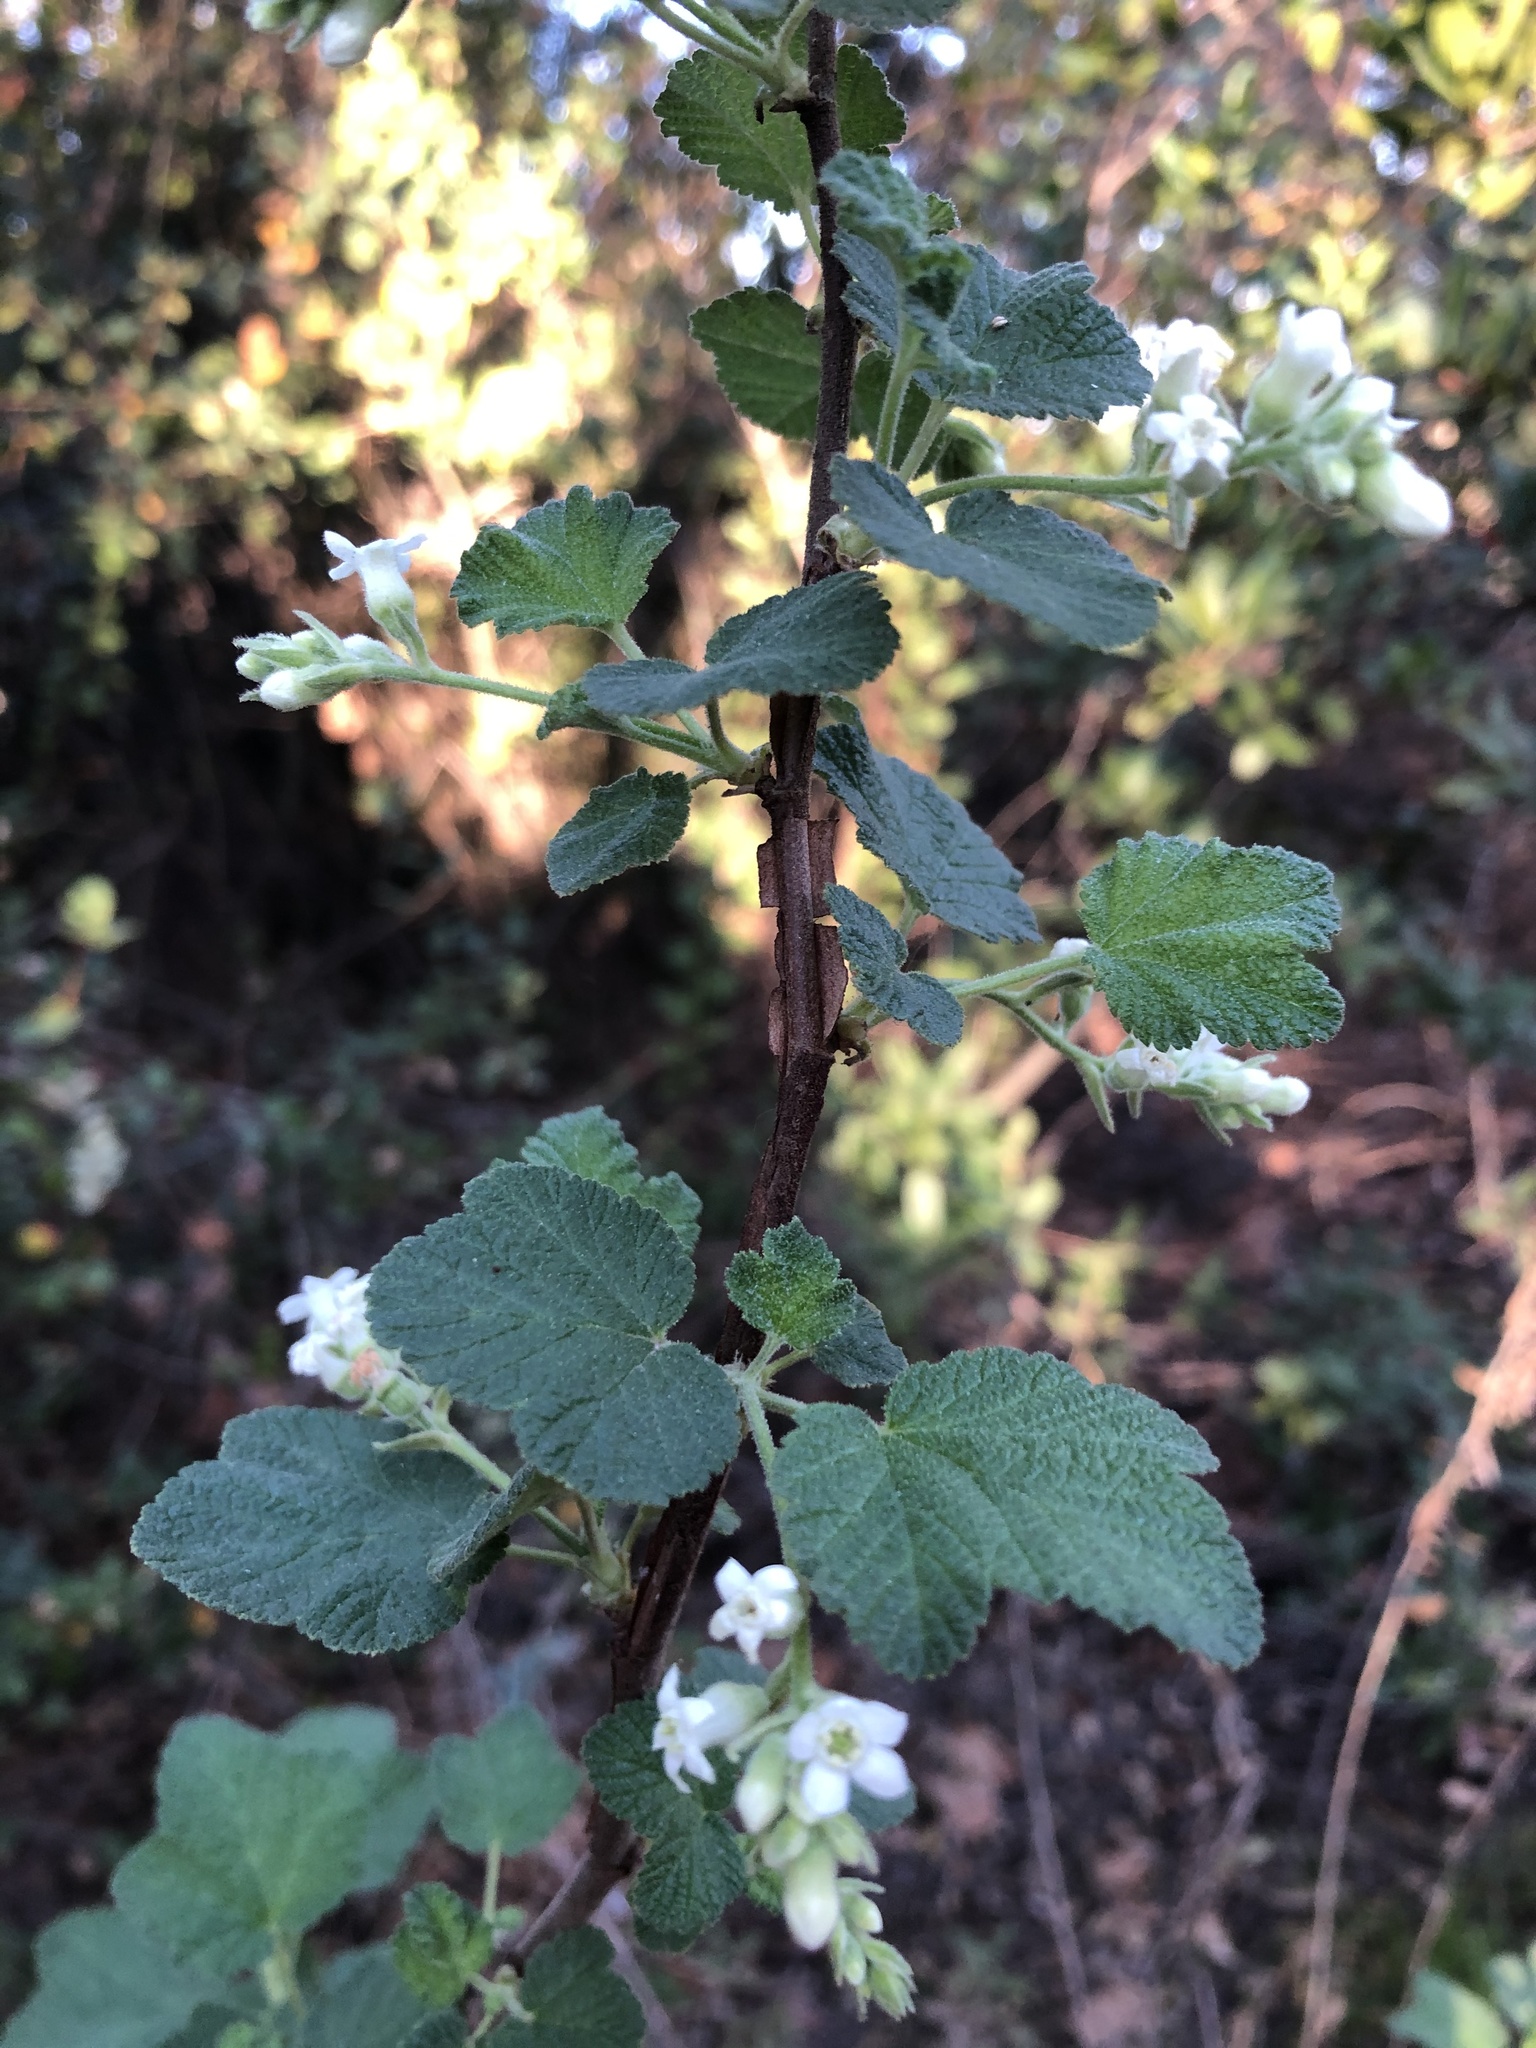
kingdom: Plantae
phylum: Tracheophyta
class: Magnoliopsida
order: Saxifragales
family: Grossulariaceae
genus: Ribes
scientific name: Ribes indecorum
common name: White-flower currant
